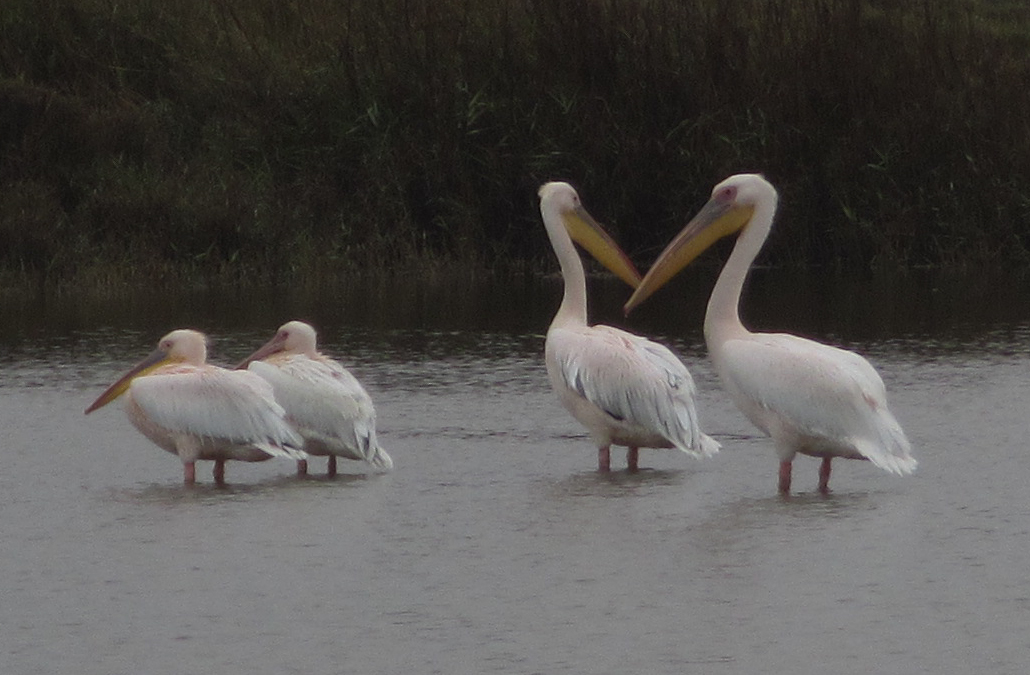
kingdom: Animalia
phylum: Chordata
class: Aves
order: Pelecaniformes
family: Pelecanidae
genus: Pelecanus
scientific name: Pelecanus onocrotalus
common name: Great white pelican
